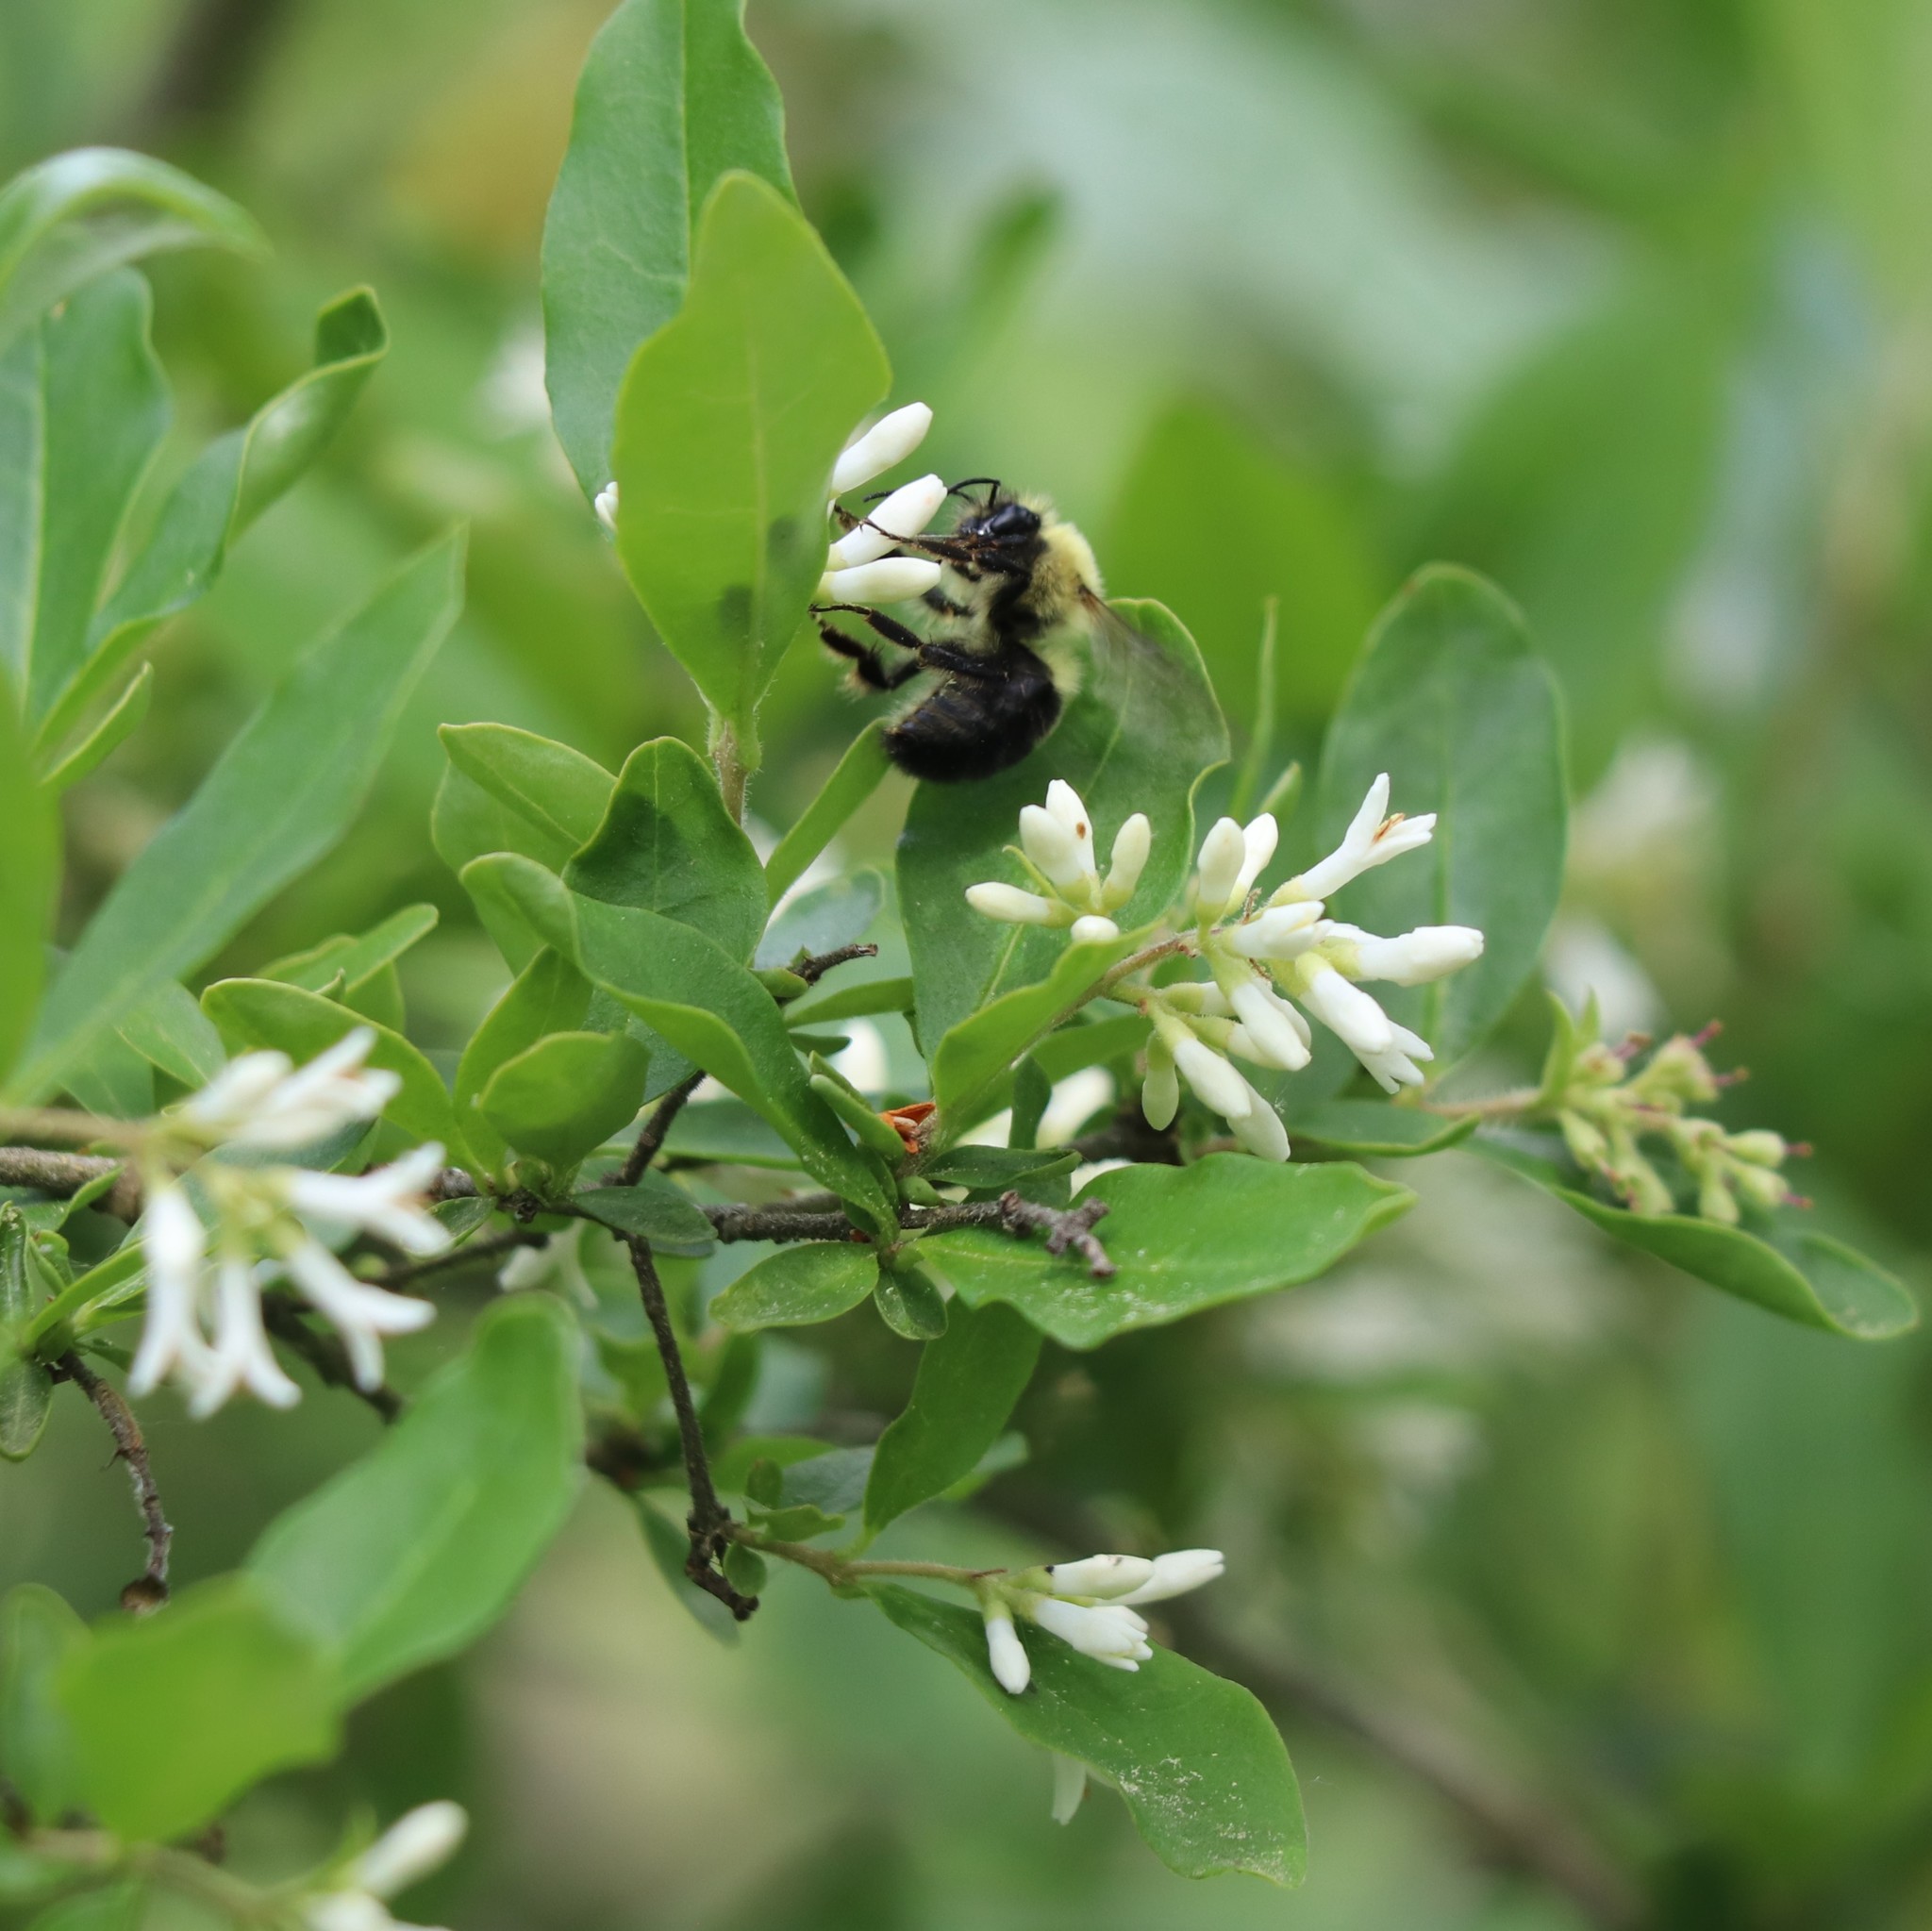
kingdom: Animalia
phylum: Arthropoda
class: Insecta
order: Hymenoptera
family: Apidae
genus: Bombus
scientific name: Bombus bimaculatus
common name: Two-spotted bumble bee
